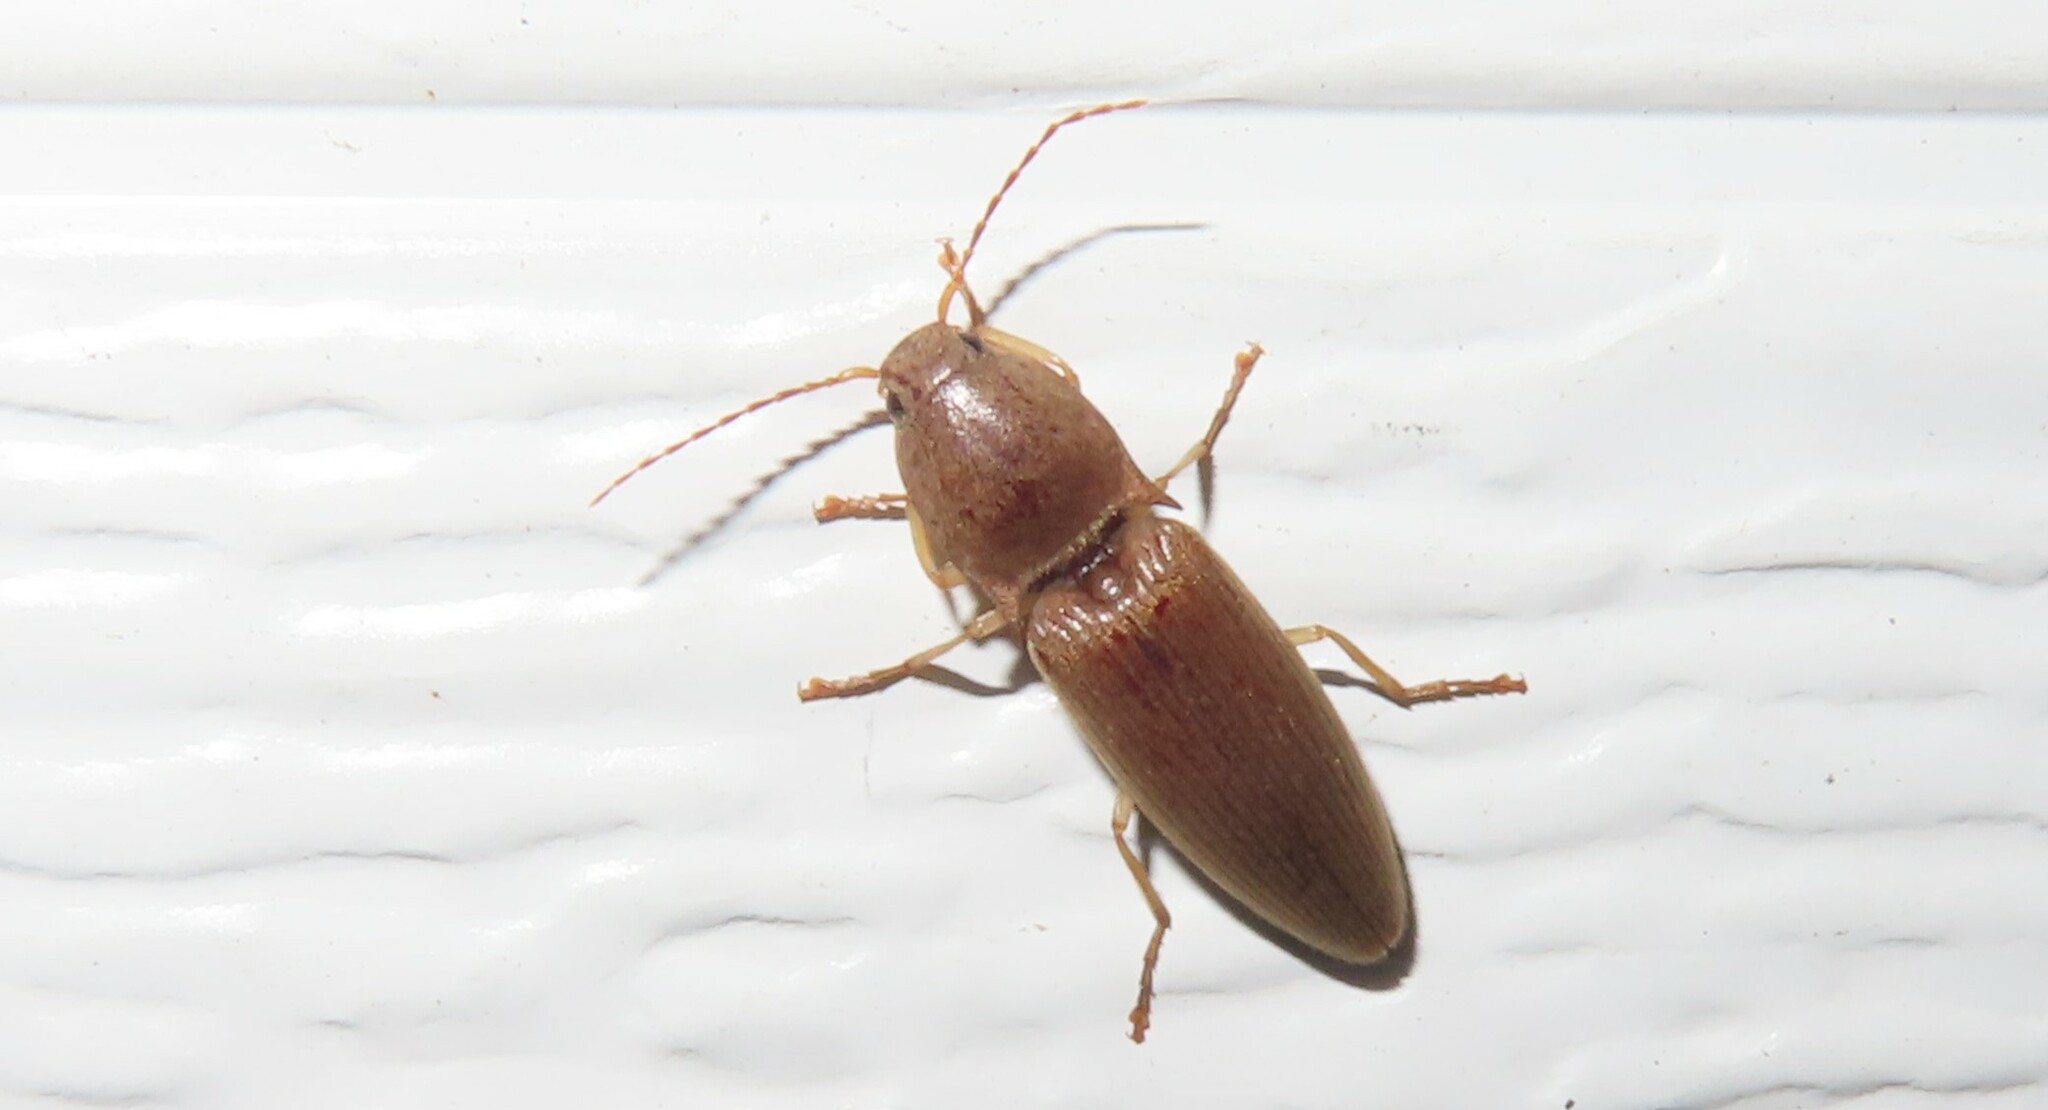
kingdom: Animalia
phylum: Arthropoda
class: Insecta
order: Coleoptera
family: Elateridae
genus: Monocrepidius
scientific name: Monocrepidius lividus
